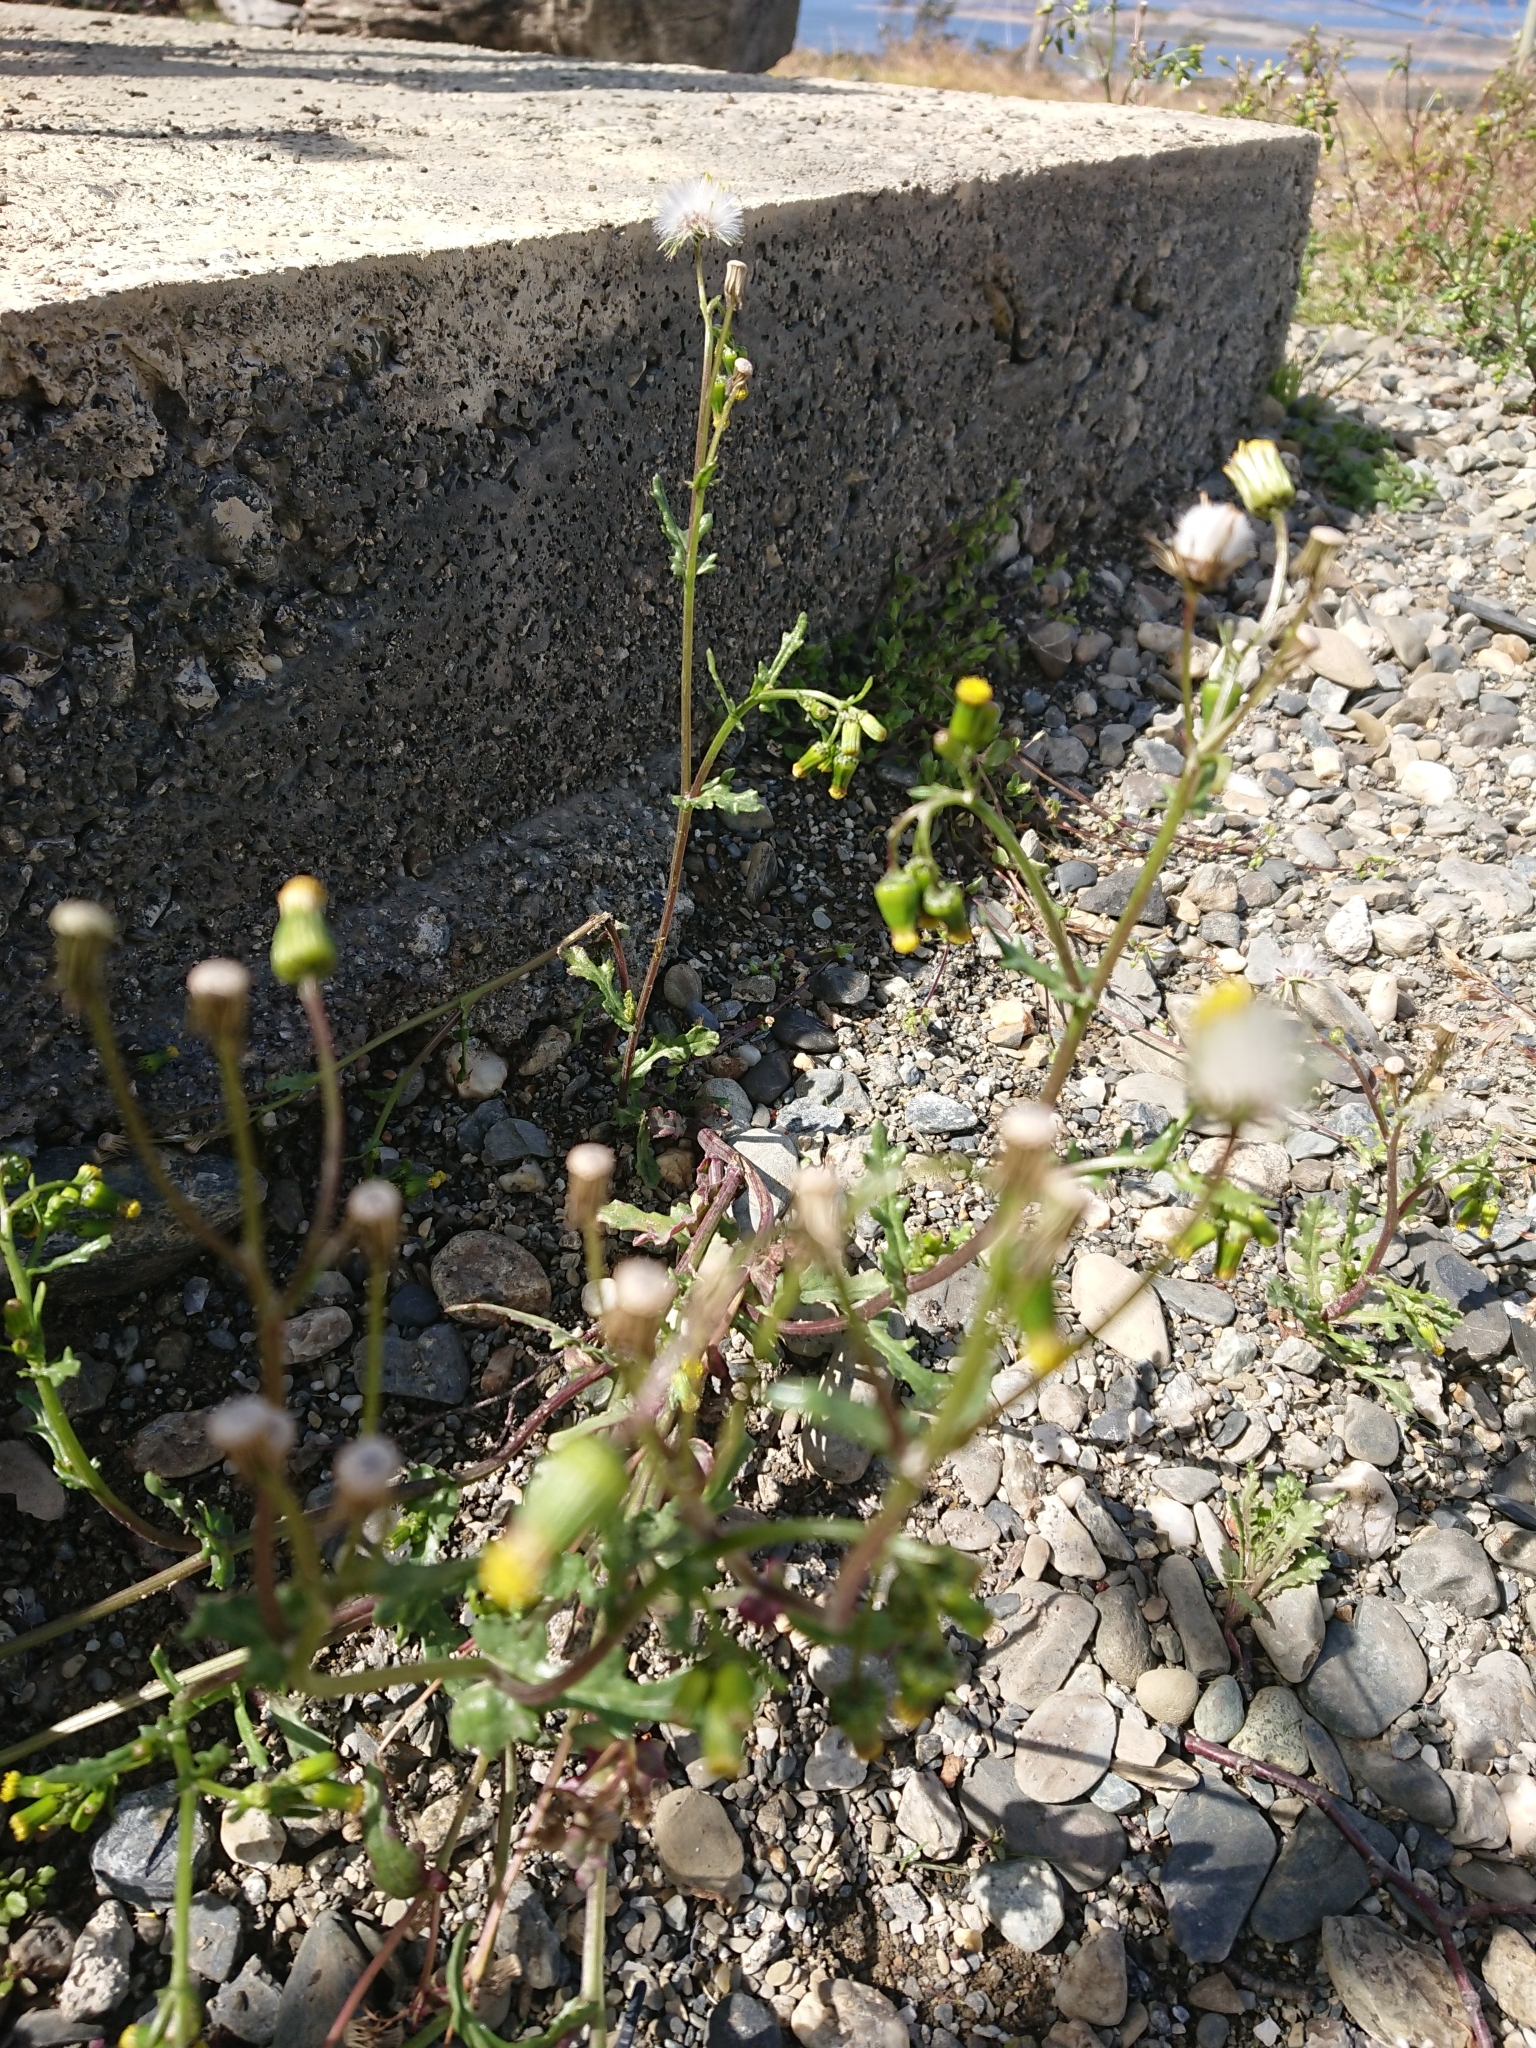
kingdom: Plantae
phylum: Tracheophyta
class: Magnoliopsida
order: Asterales
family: Asteraceae
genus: Senecio
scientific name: Senecio vulgaris
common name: Old-man-in-the-spring
